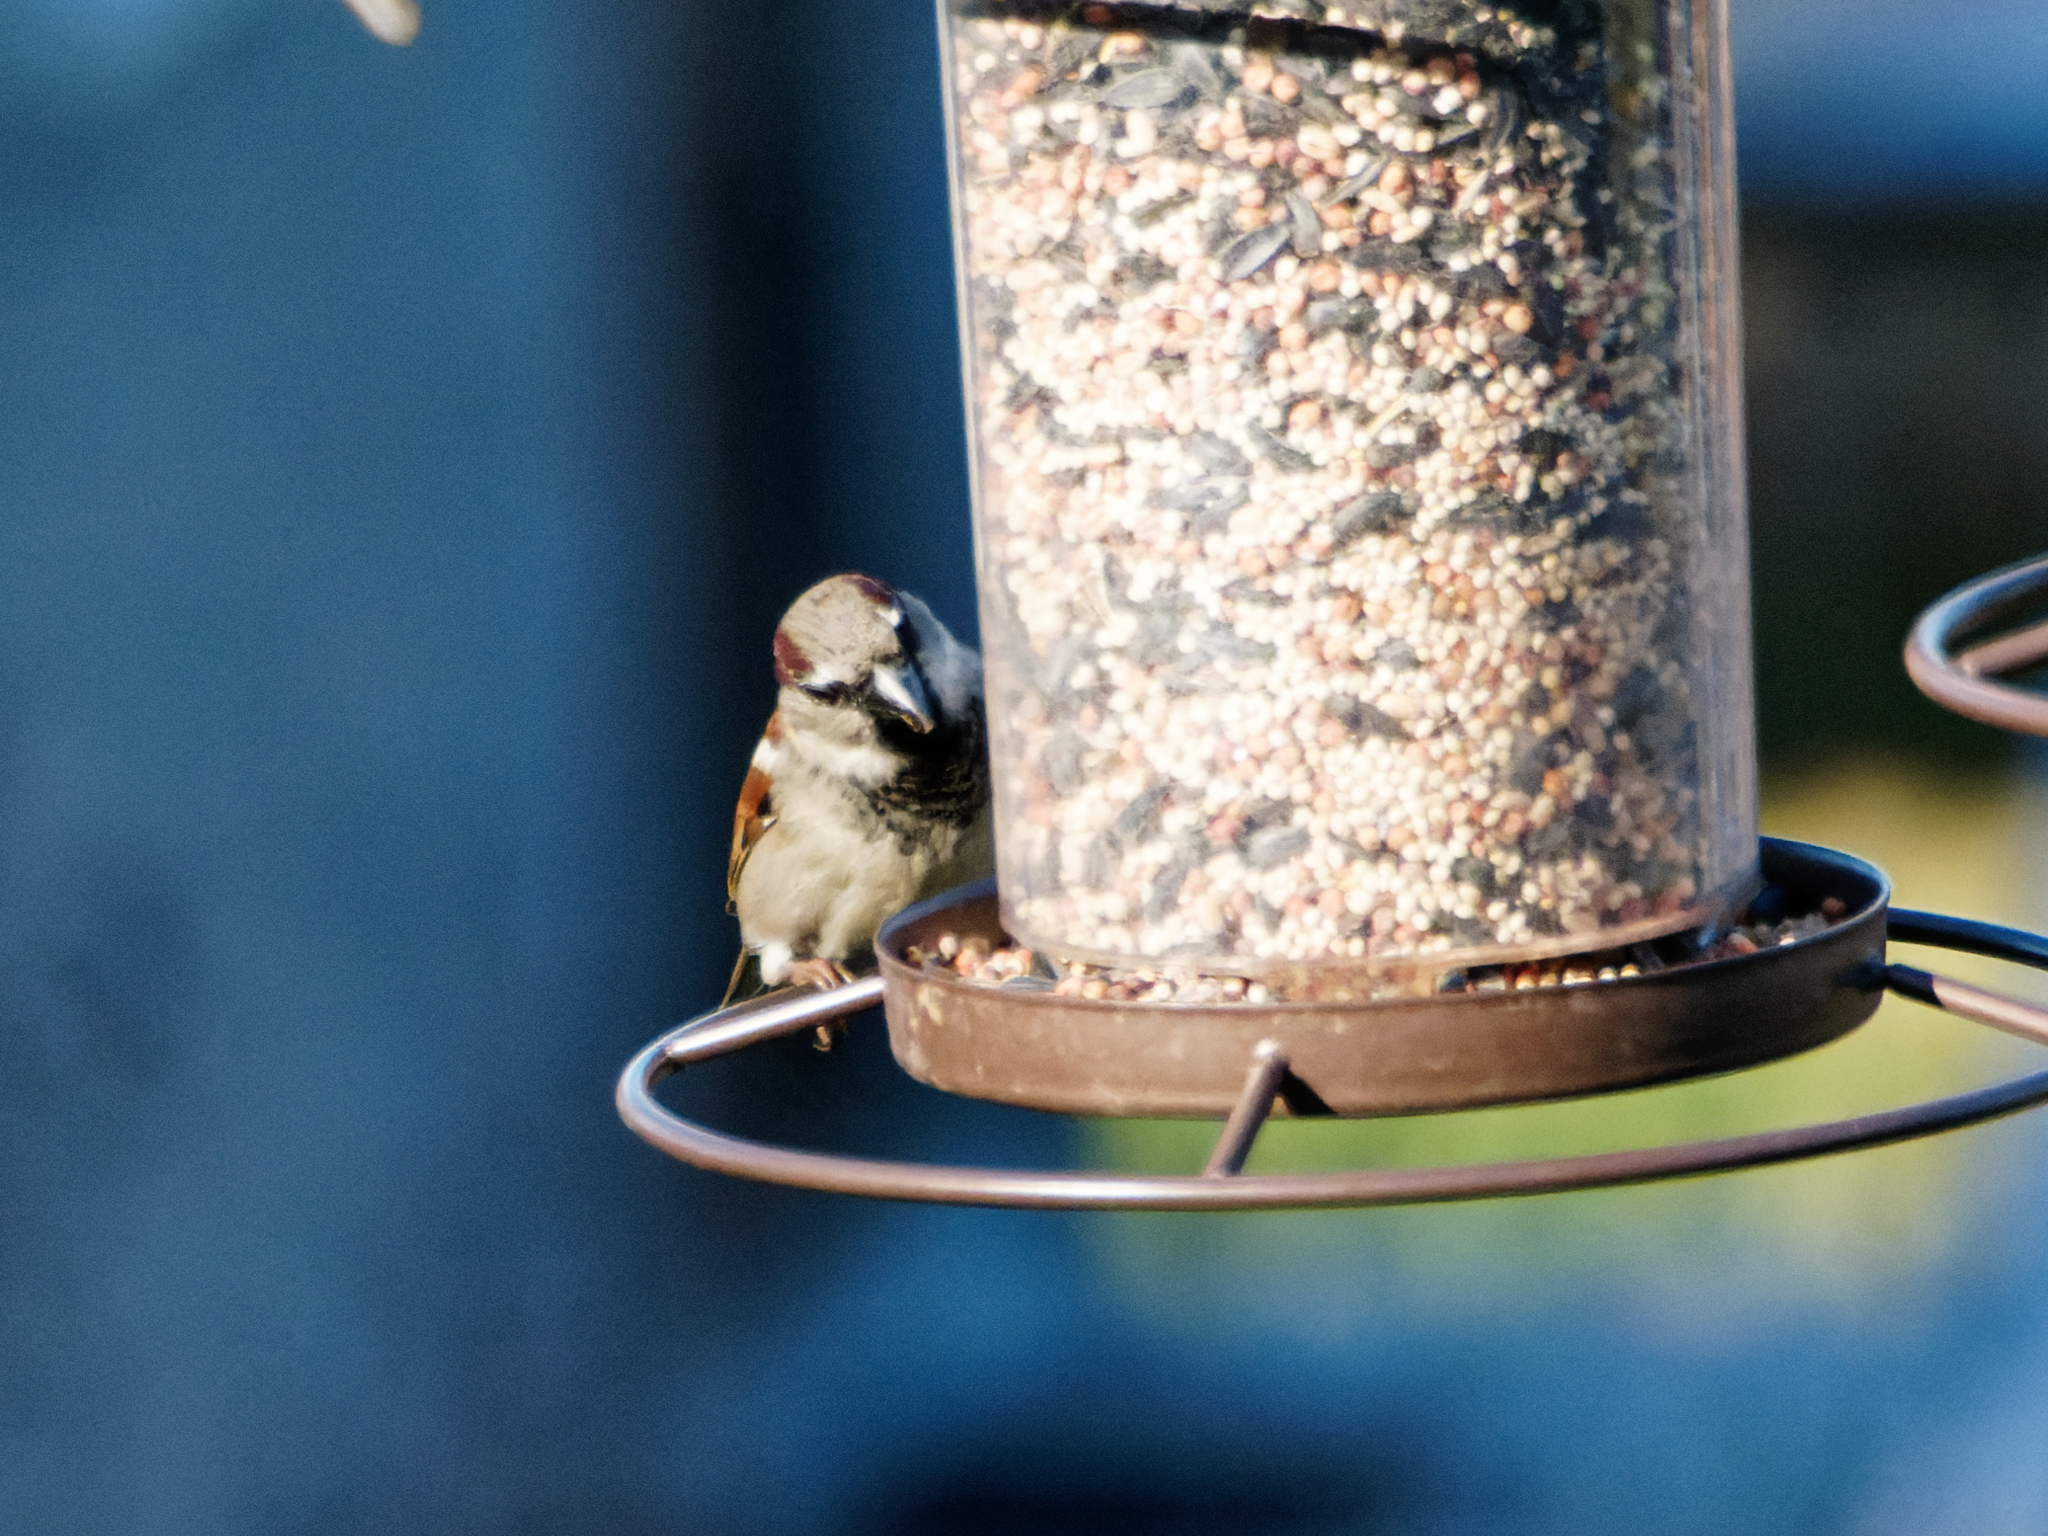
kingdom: Animalia
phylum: Chordata
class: Aves
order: Passeriformes
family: Passeridae
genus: Passer
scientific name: Passer domesticus
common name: House sparrow
